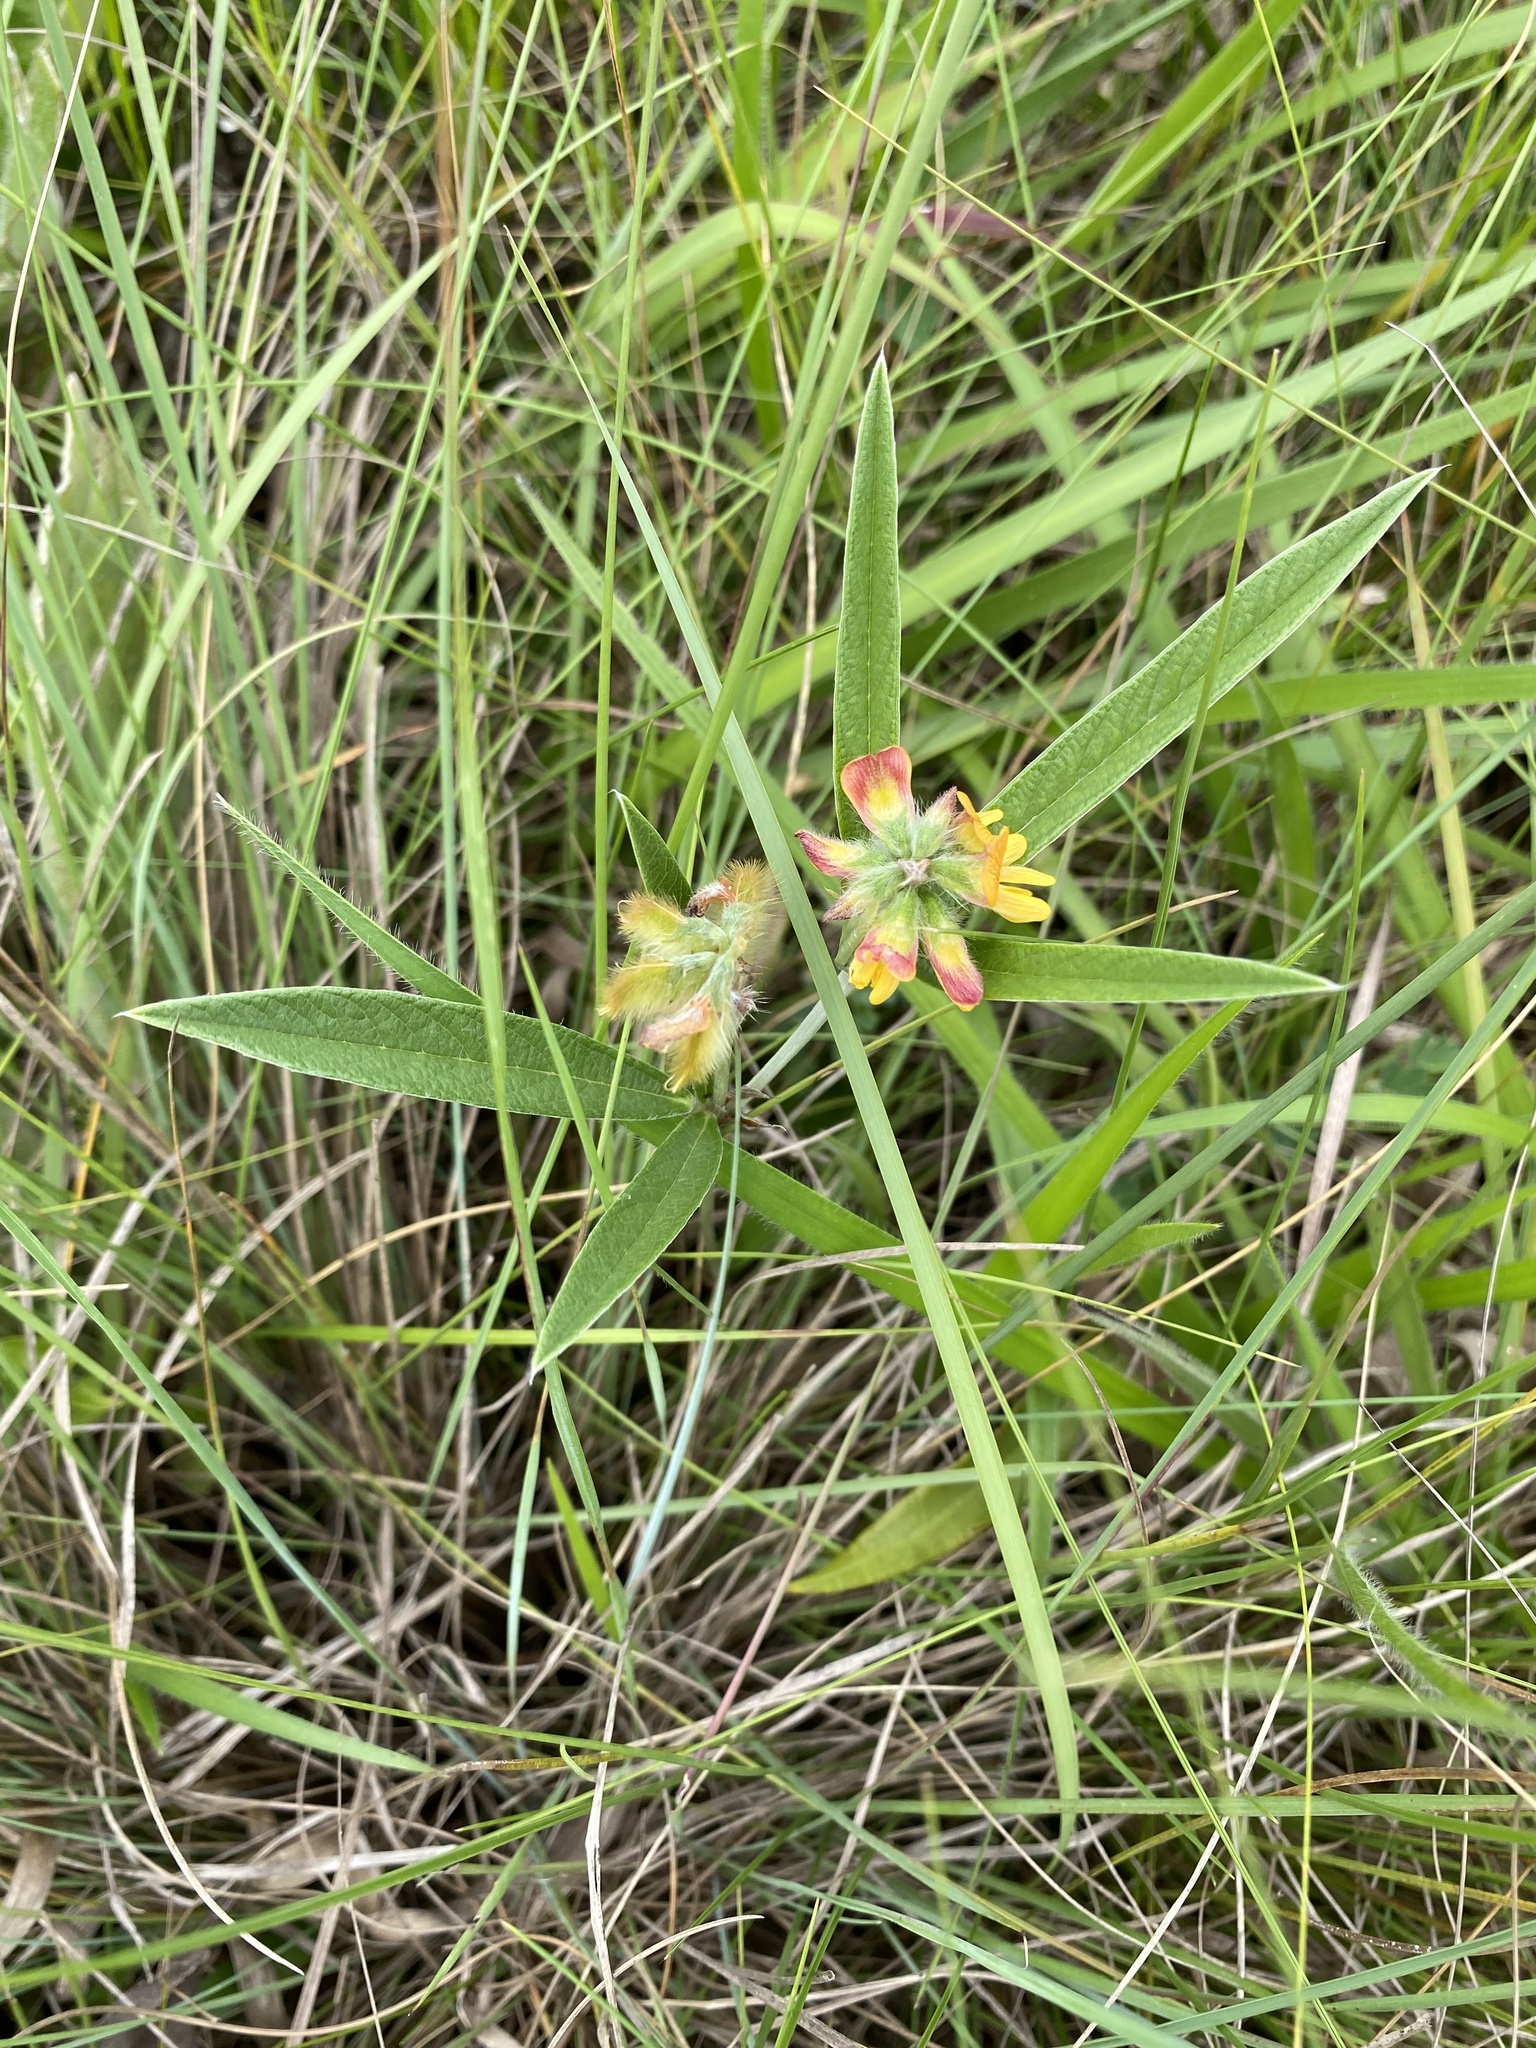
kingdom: Plantae
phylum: Tracheophyta
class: Magnoliopsida
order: Fabales
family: Fabaceae
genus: Eriosema
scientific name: Eriosema salignum
